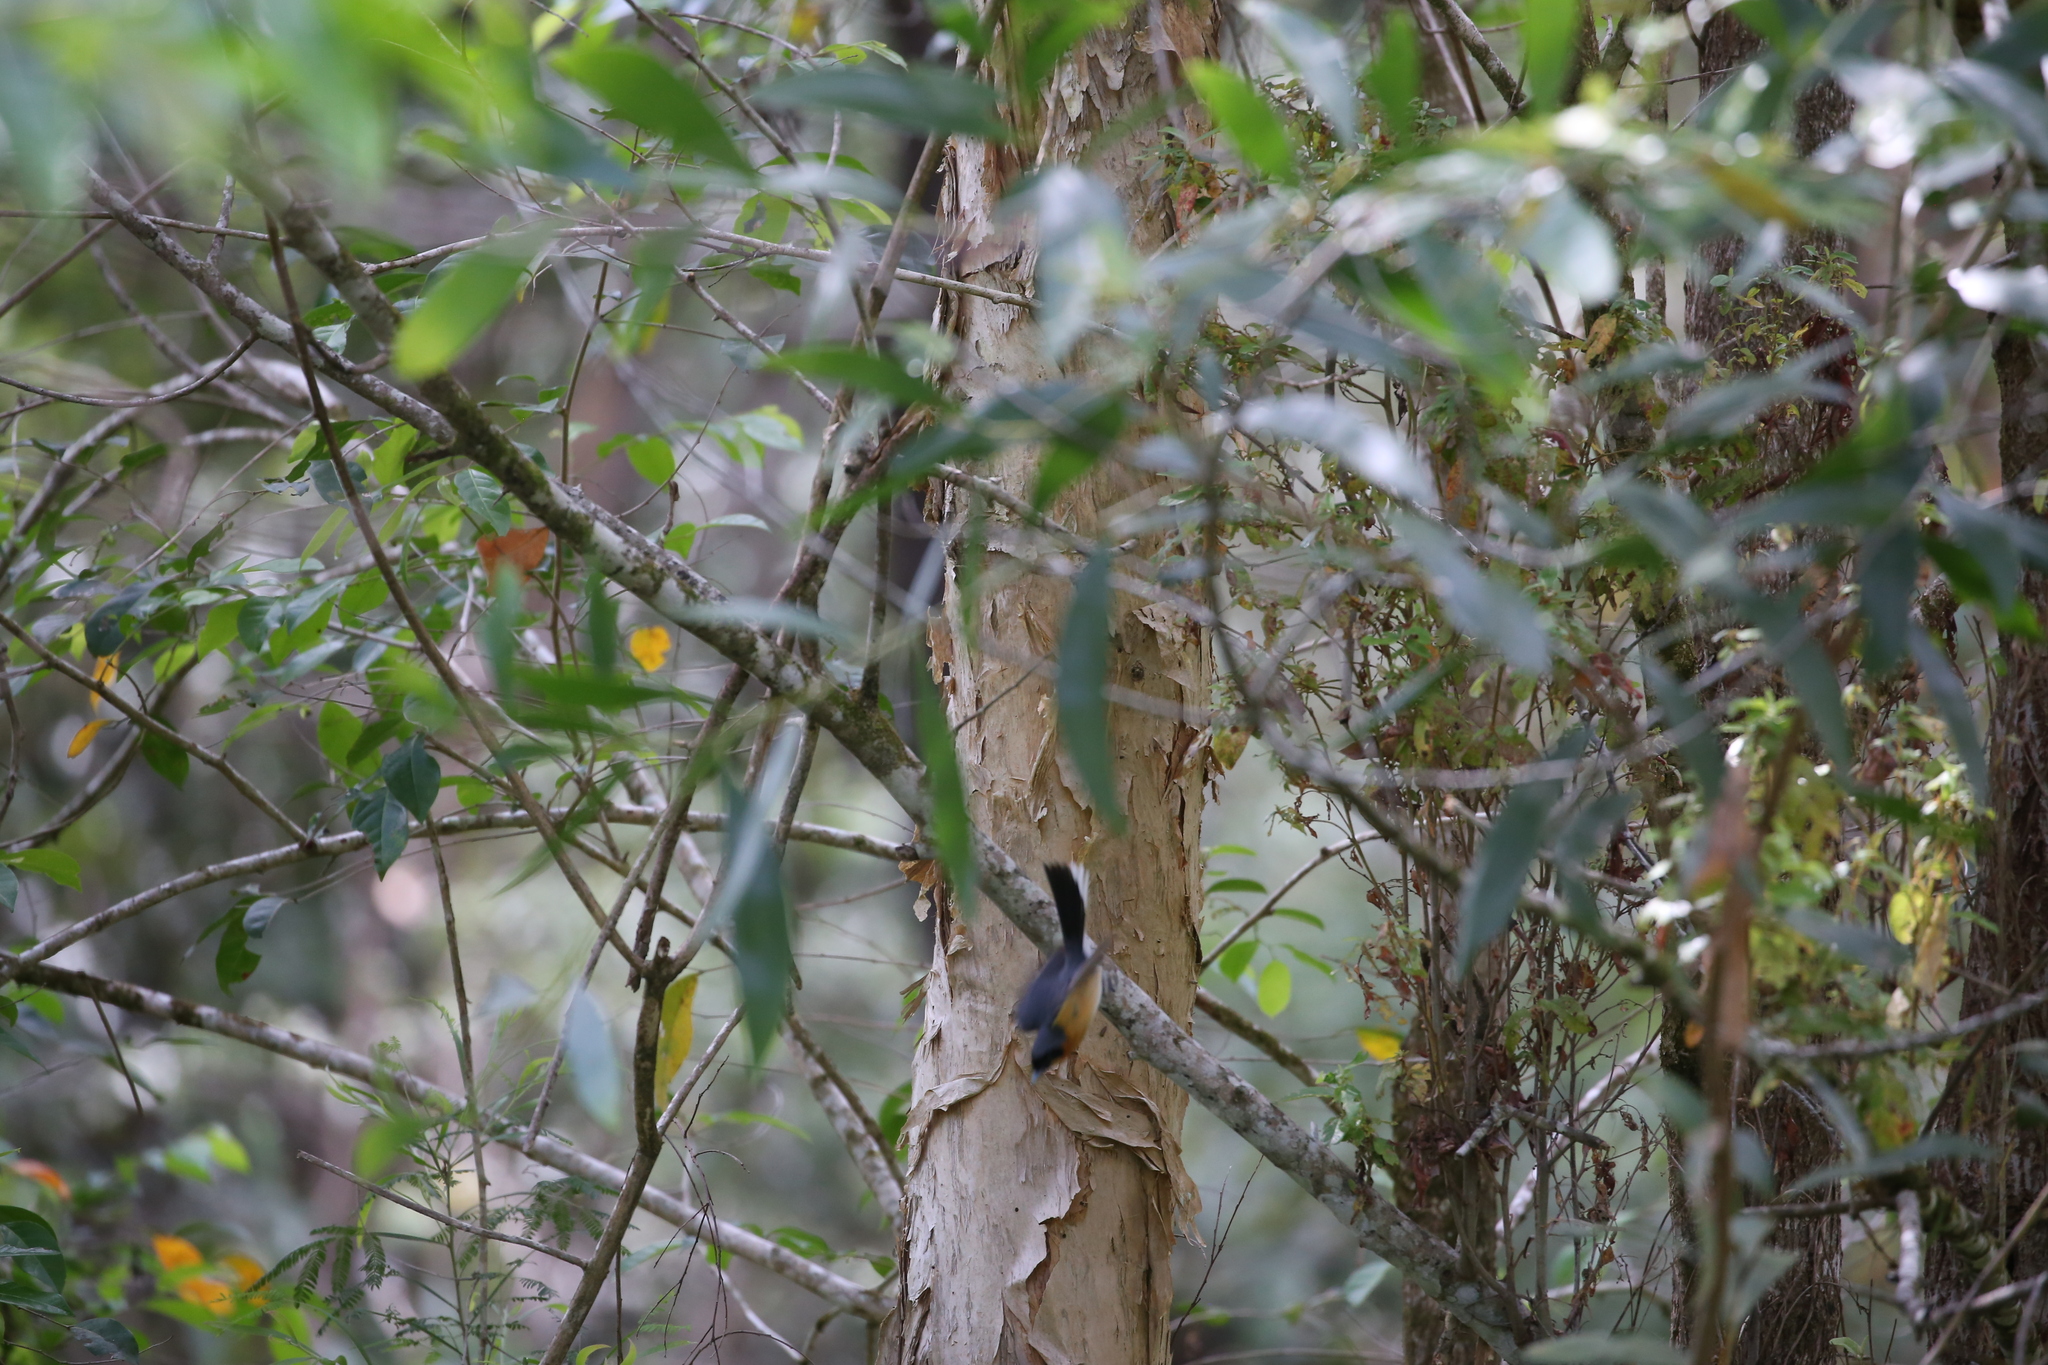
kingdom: Animalia
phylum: Chordata
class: Aves
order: Passeriformes
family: Monarchidae
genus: Symposiachrus
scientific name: Symposiachrus trivirgatus
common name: Spectacled monarch
